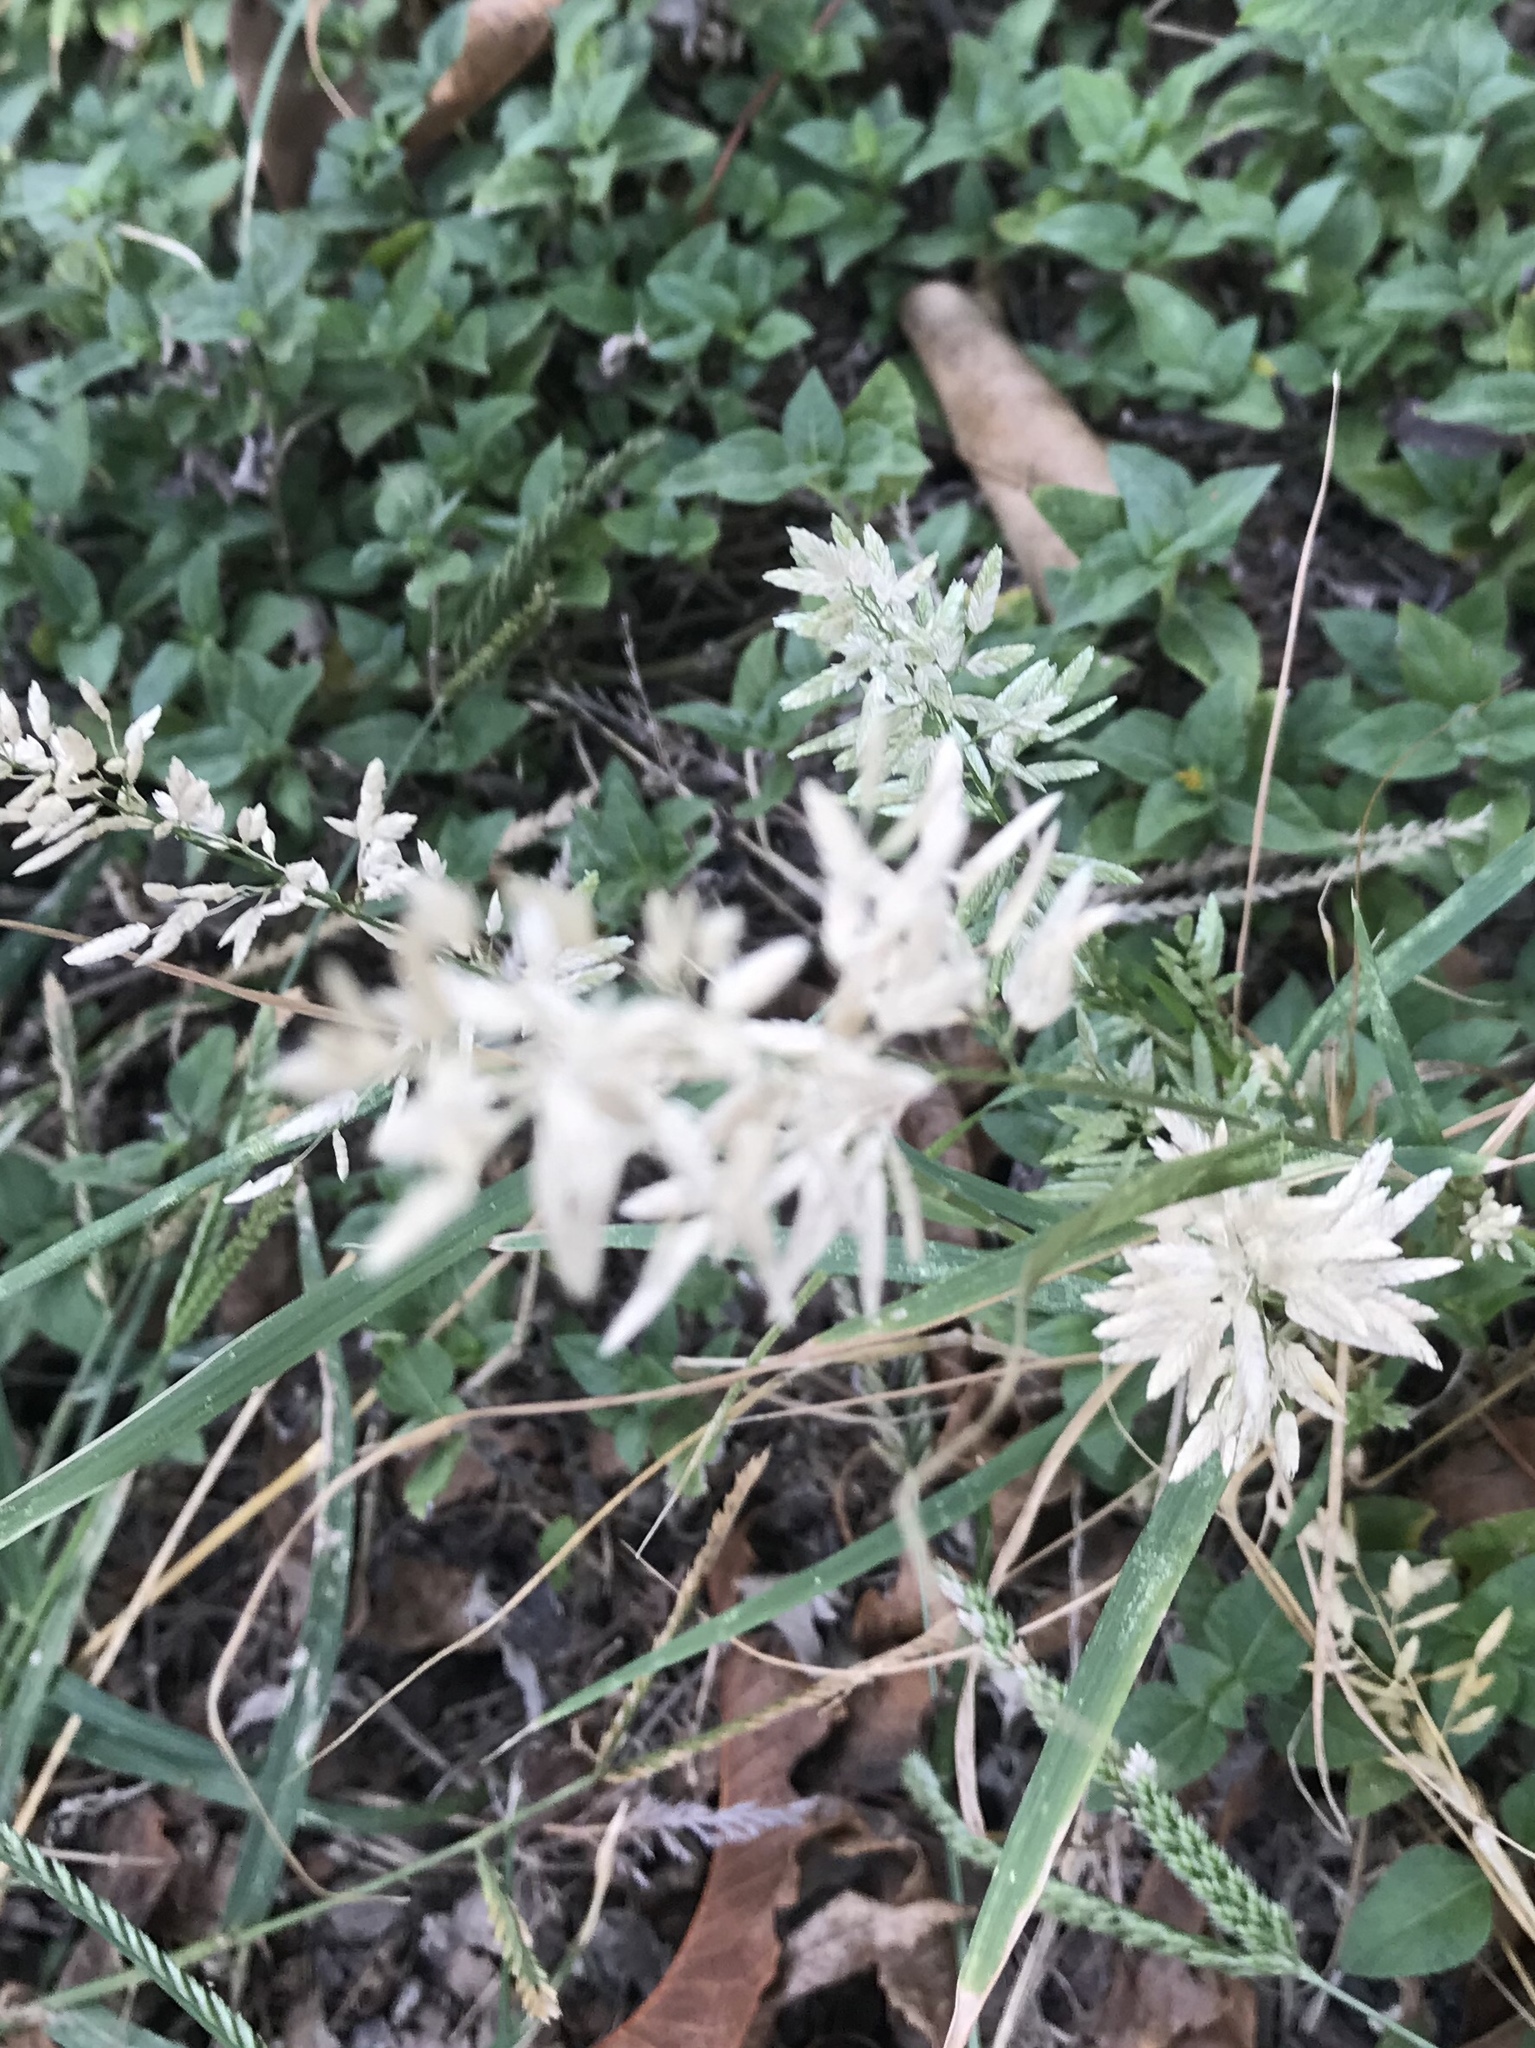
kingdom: Plantae
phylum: Tracheophyta
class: Liliopsida
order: Poales
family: Poaceae
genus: Eragrostis
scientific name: Eragrostis cilianensis
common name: Stinkgrass
